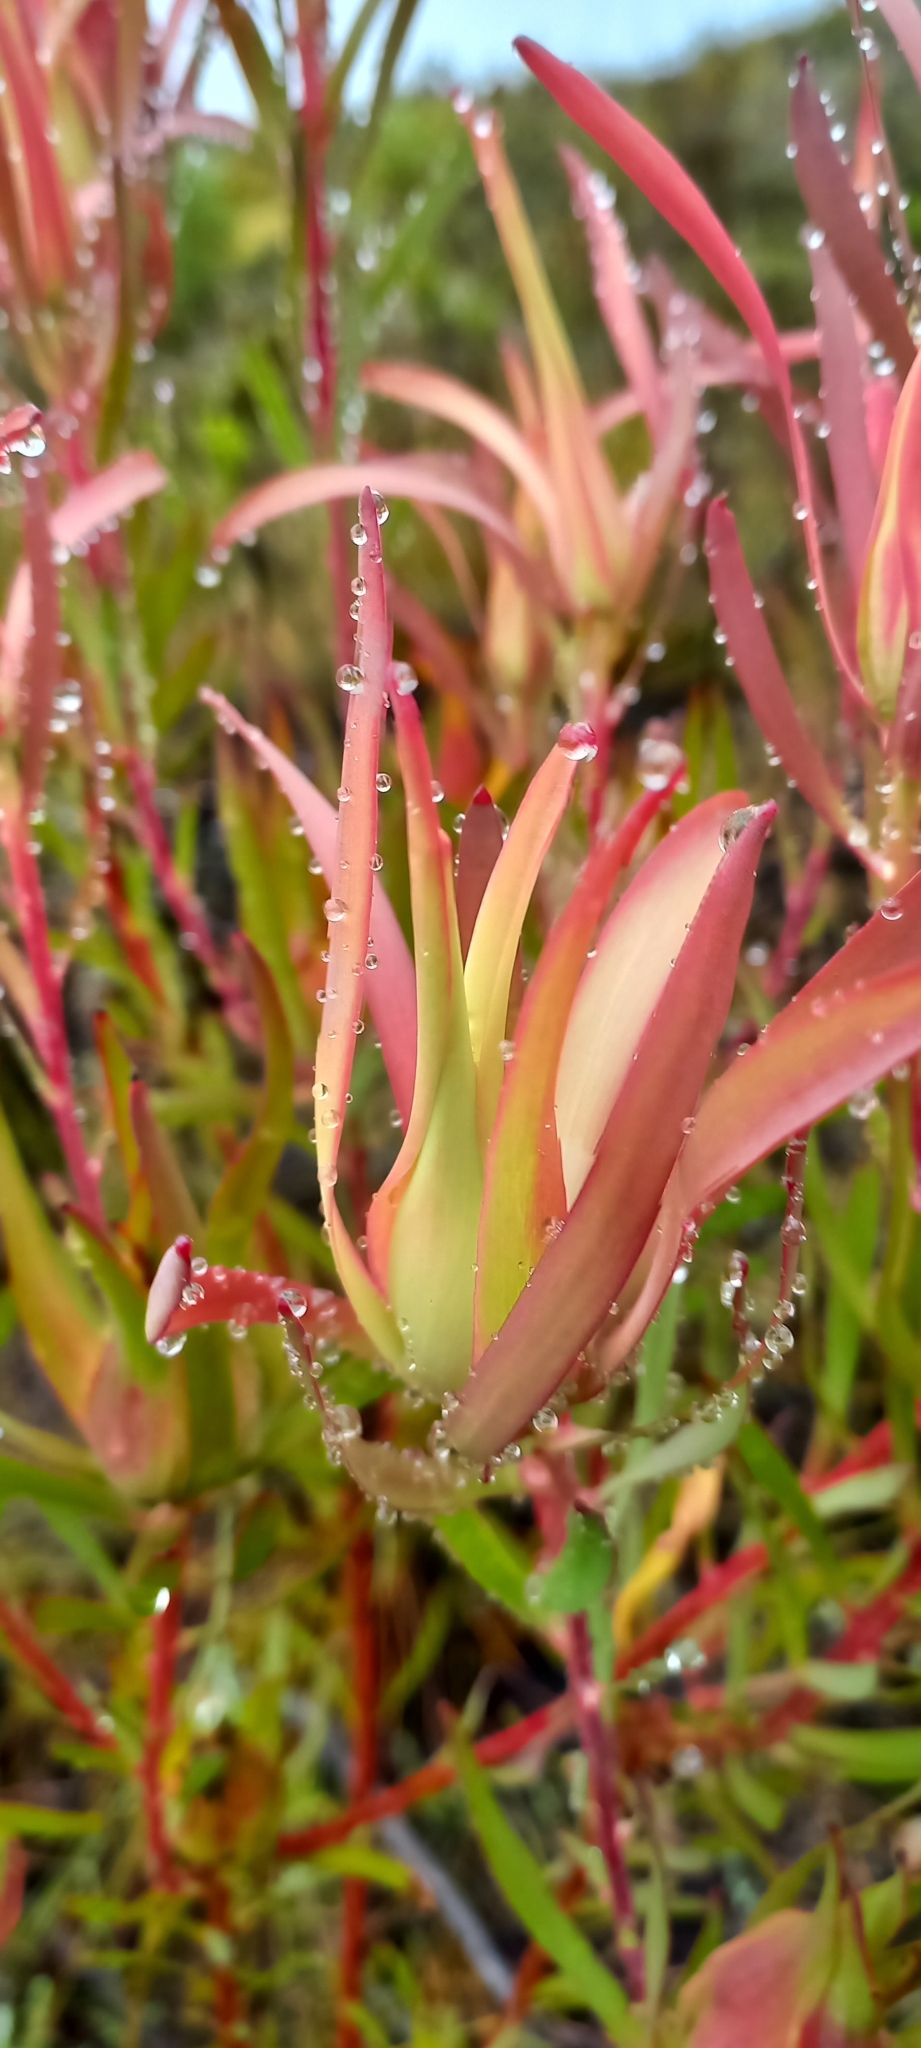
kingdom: Plantae
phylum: Tracheophyta
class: Magnoliopsida
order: Proteales
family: Proteaceae
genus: Leucadendron
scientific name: Leucadendron salignum
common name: Common sunshine conebush
